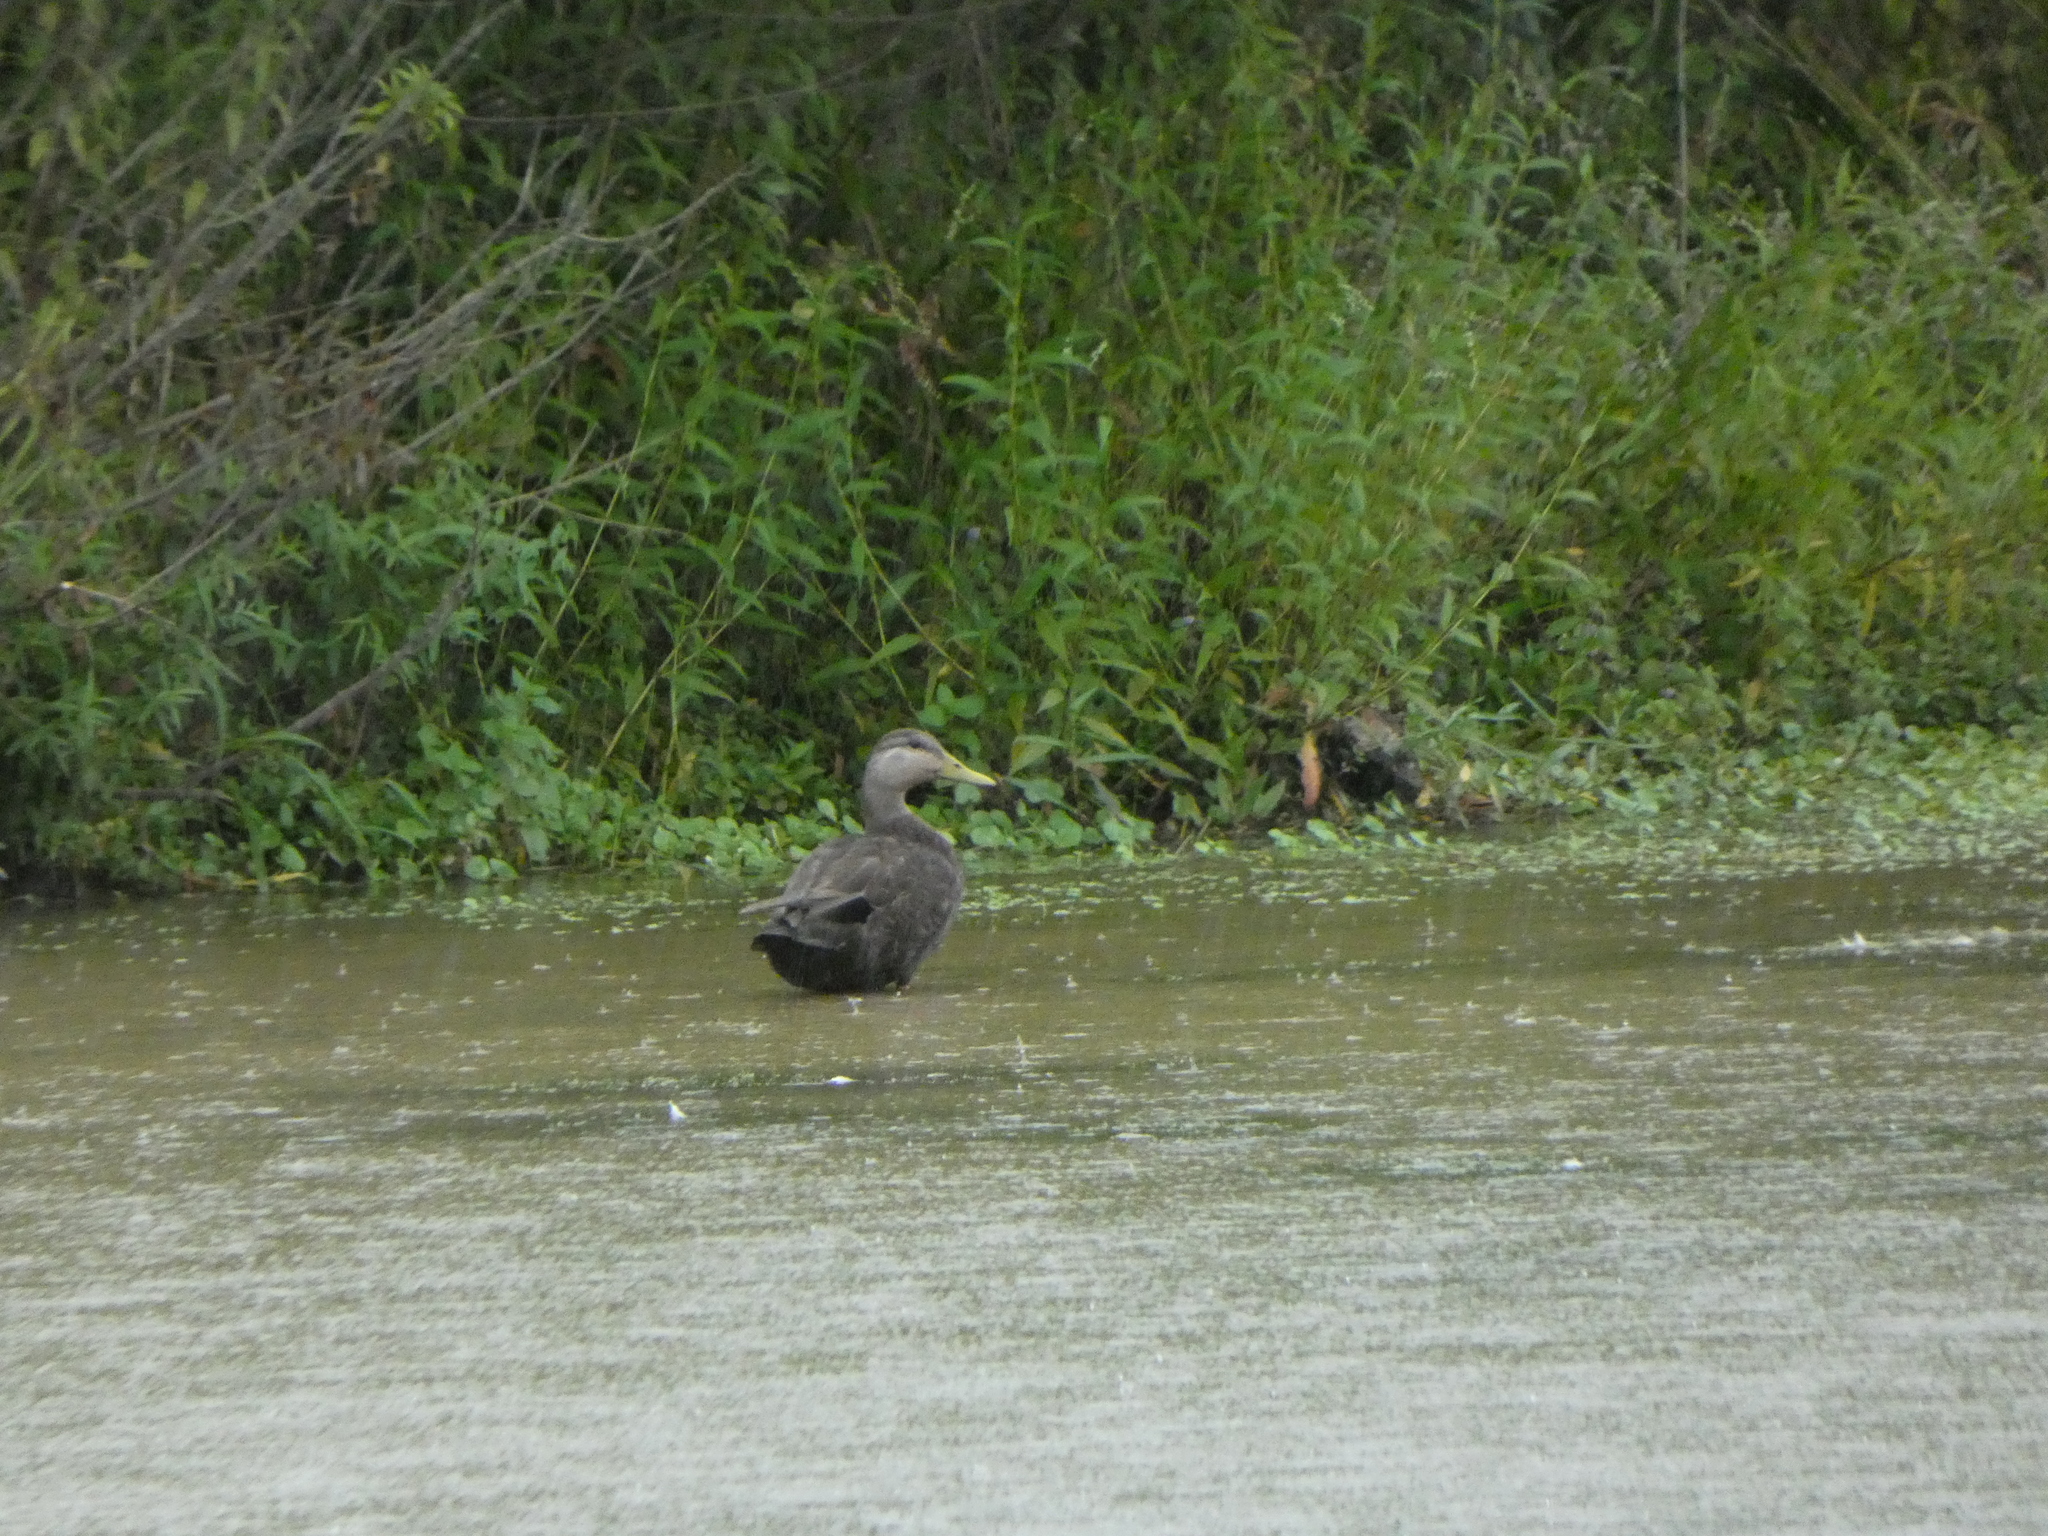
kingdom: Animalia
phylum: Chordata
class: Aves
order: Anseriformes
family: Anatidae
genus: Anas
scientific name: Anas rubripes
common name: American black duck
